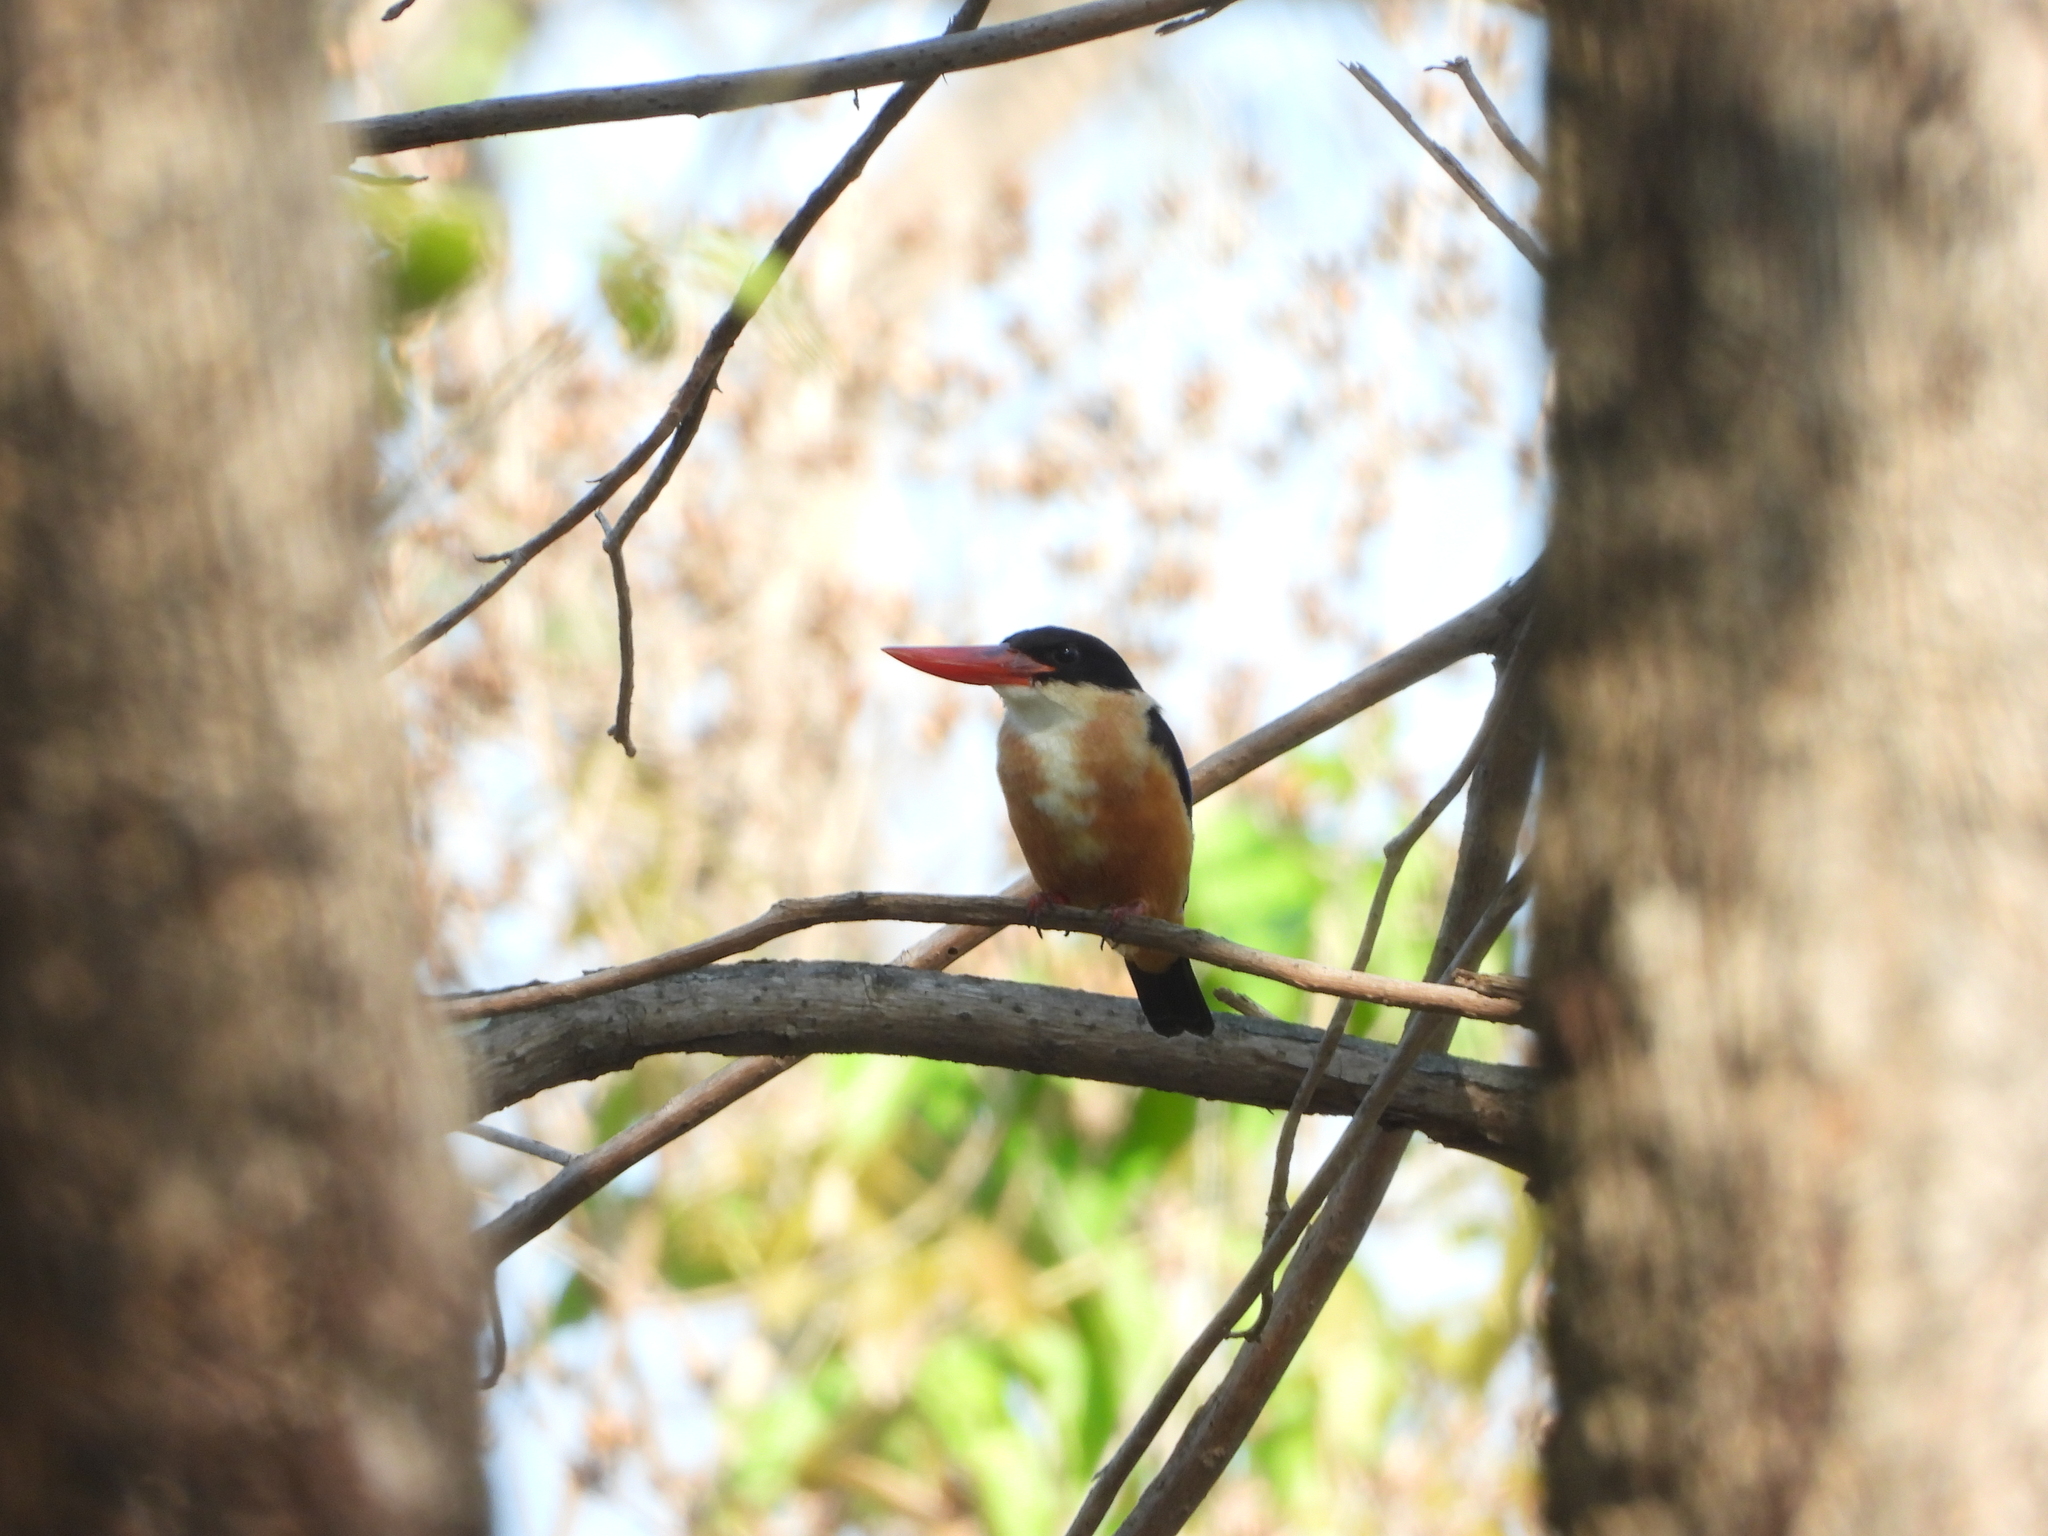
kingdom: Animalia
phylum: Chordata
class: Aves
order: Coraciiformes
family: Alcedinidae
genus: Halcyon
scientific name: Halcyon pileata
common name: Black-capped kingfisher
